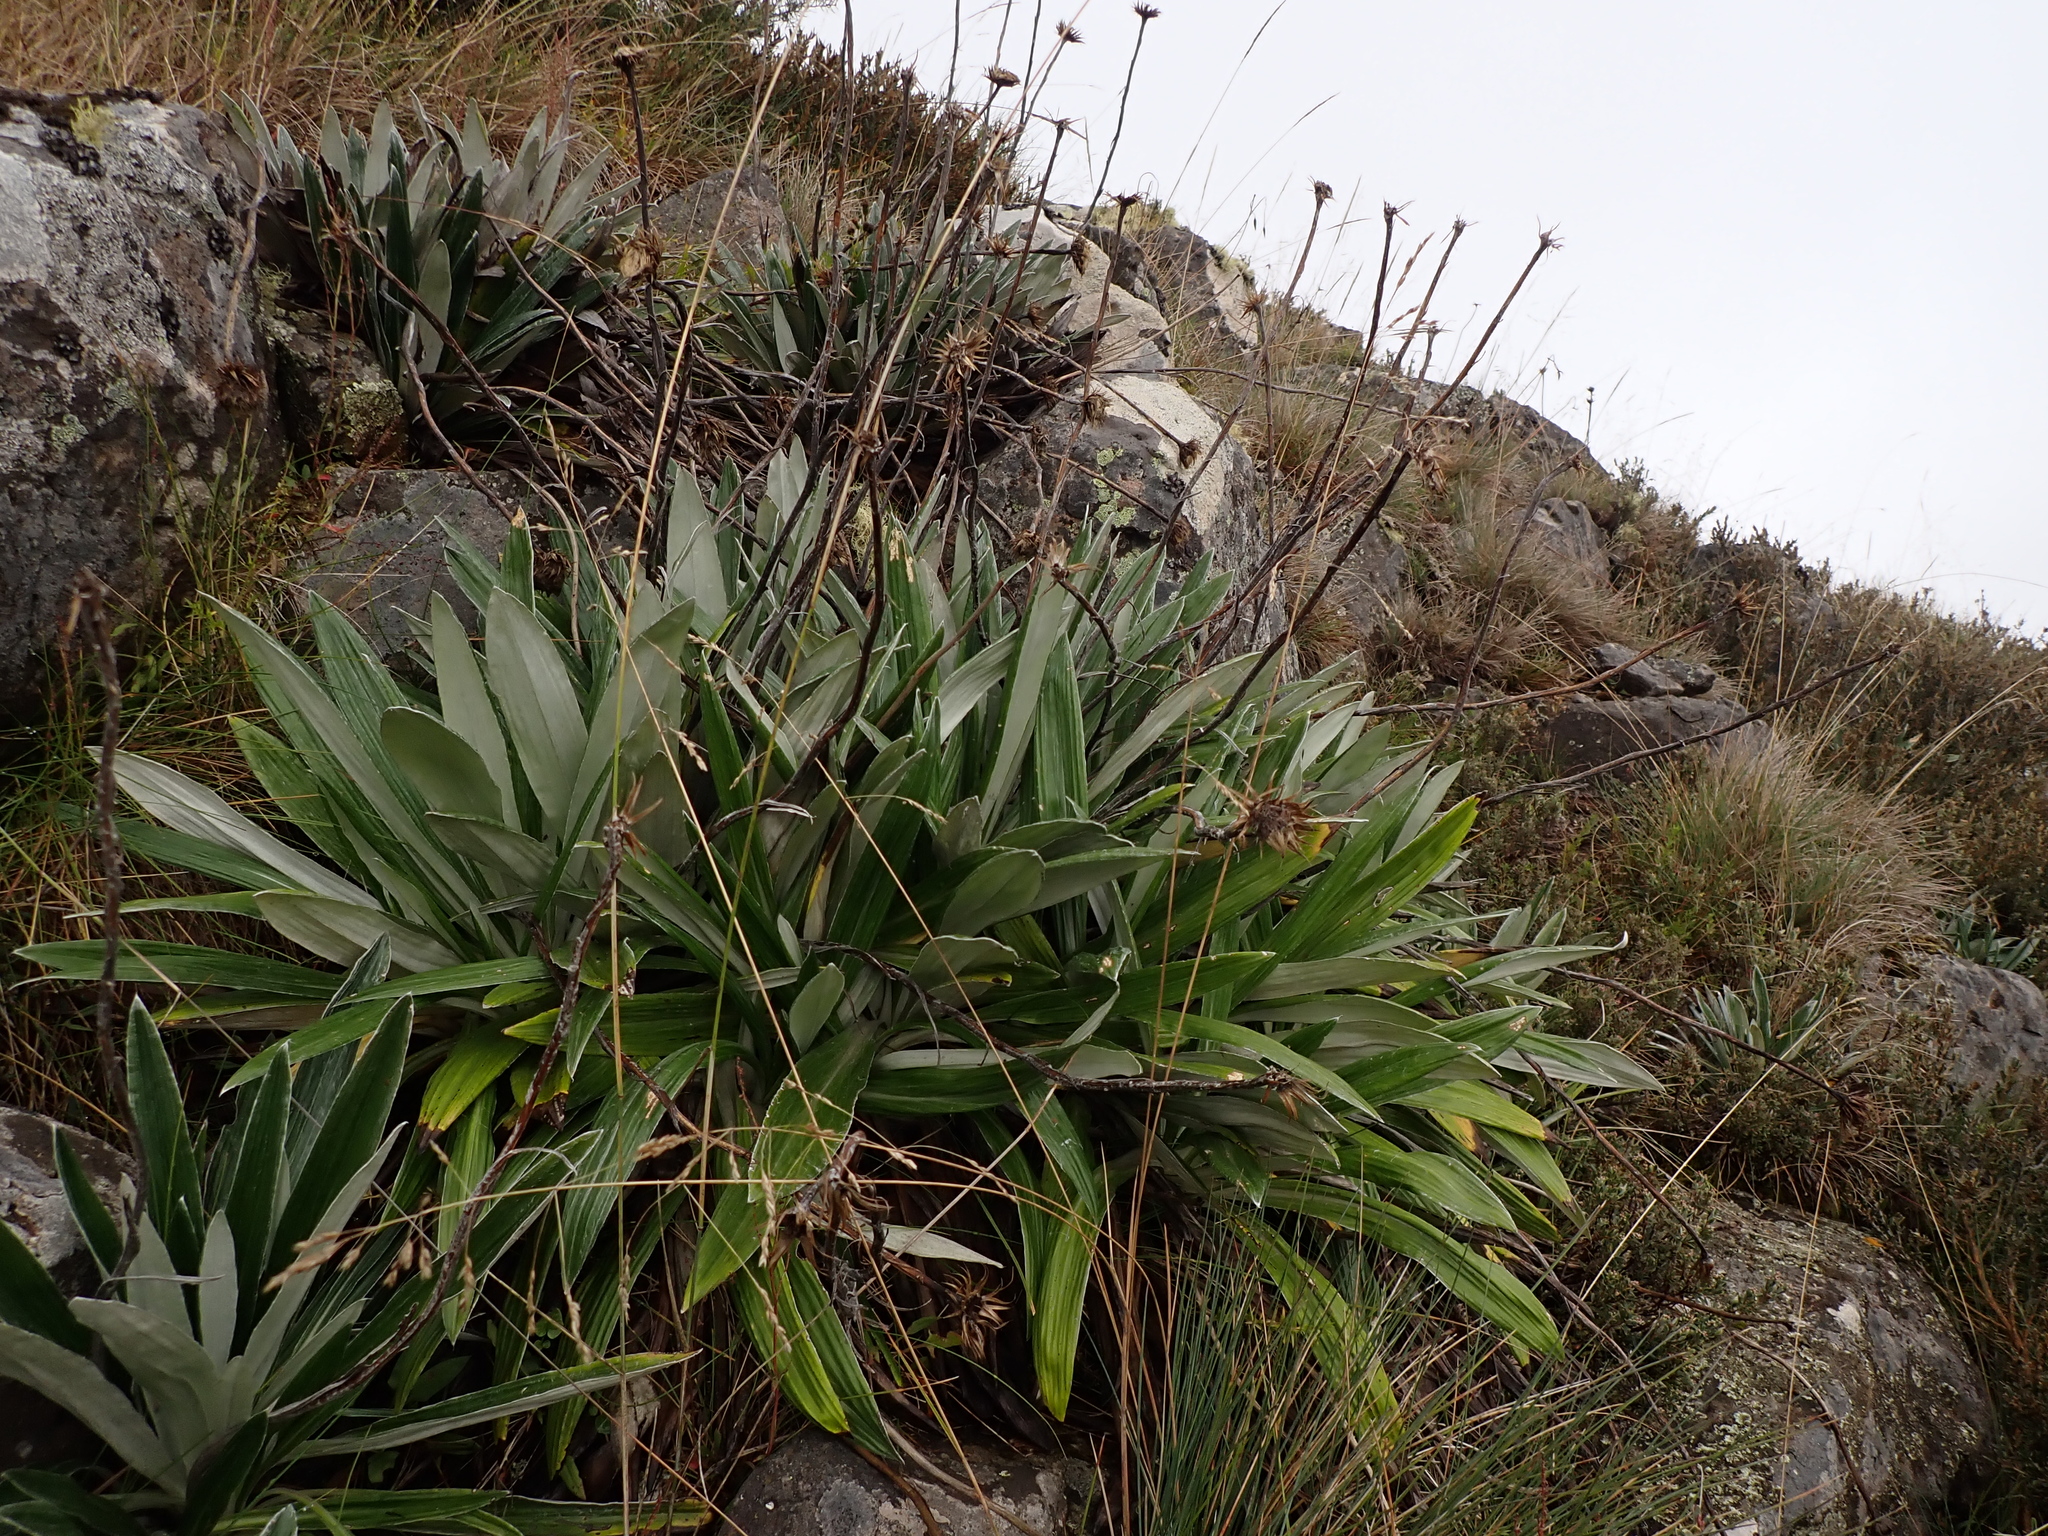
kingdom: Plantae
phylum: Tracheophyta
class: Magnoliopsida
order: Asterales
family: Asteraceae
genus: Celmisia
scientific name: Celmisia latifolia
